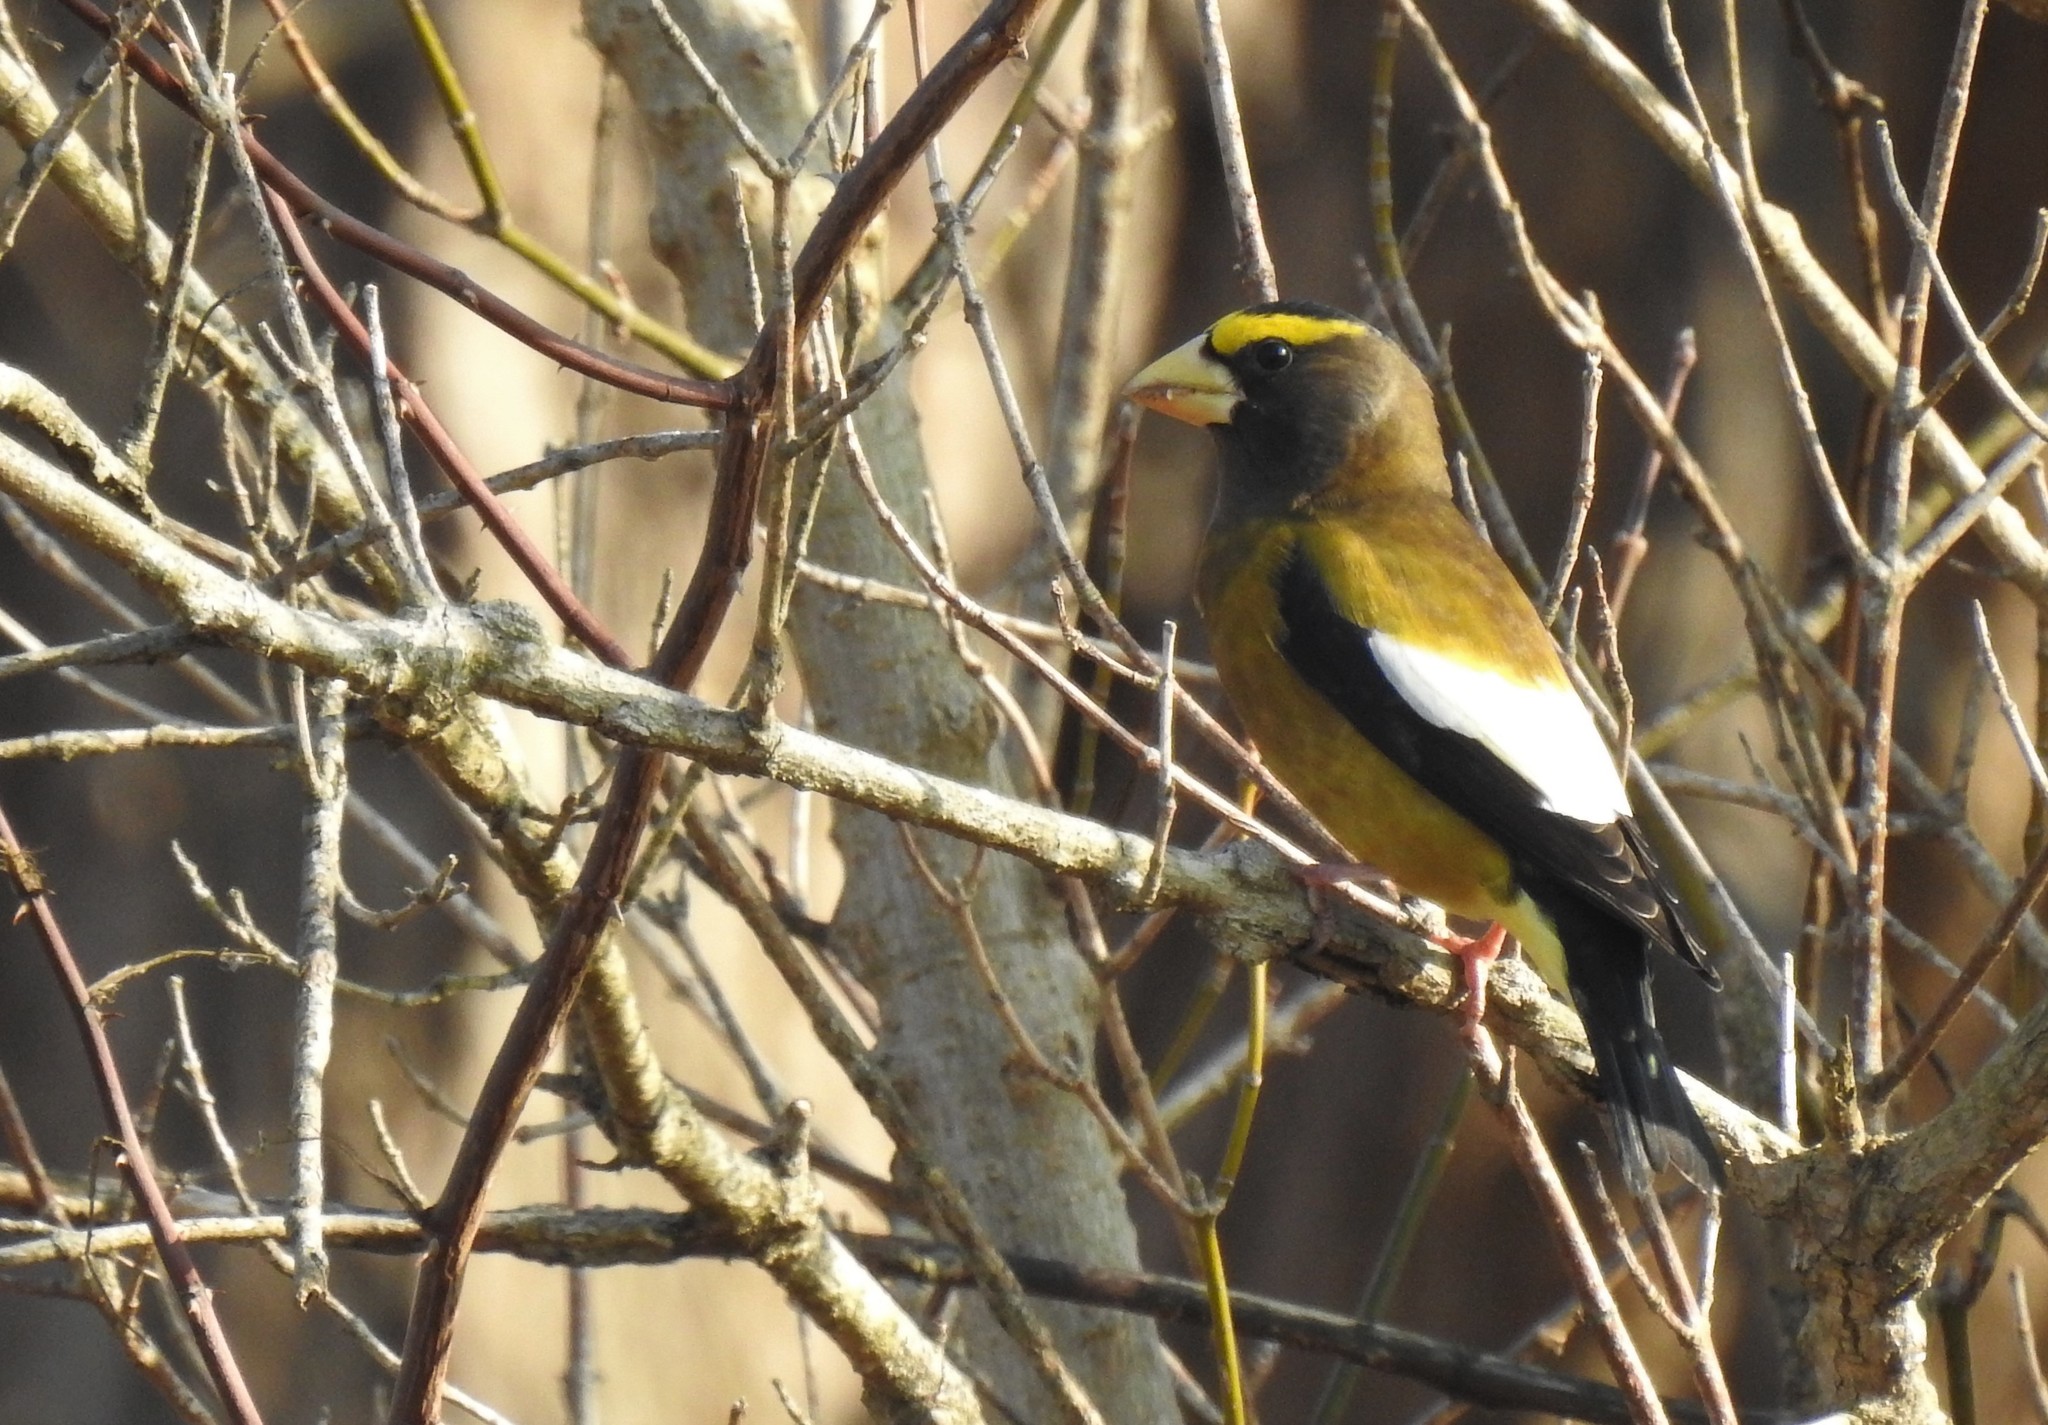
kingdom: Animalia
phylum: Chordata
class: Aves
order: Passeriformes
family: Fringillidae
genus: Hesperiphona
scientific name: Hesperiphona vespertina
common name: Evening grosbeak
